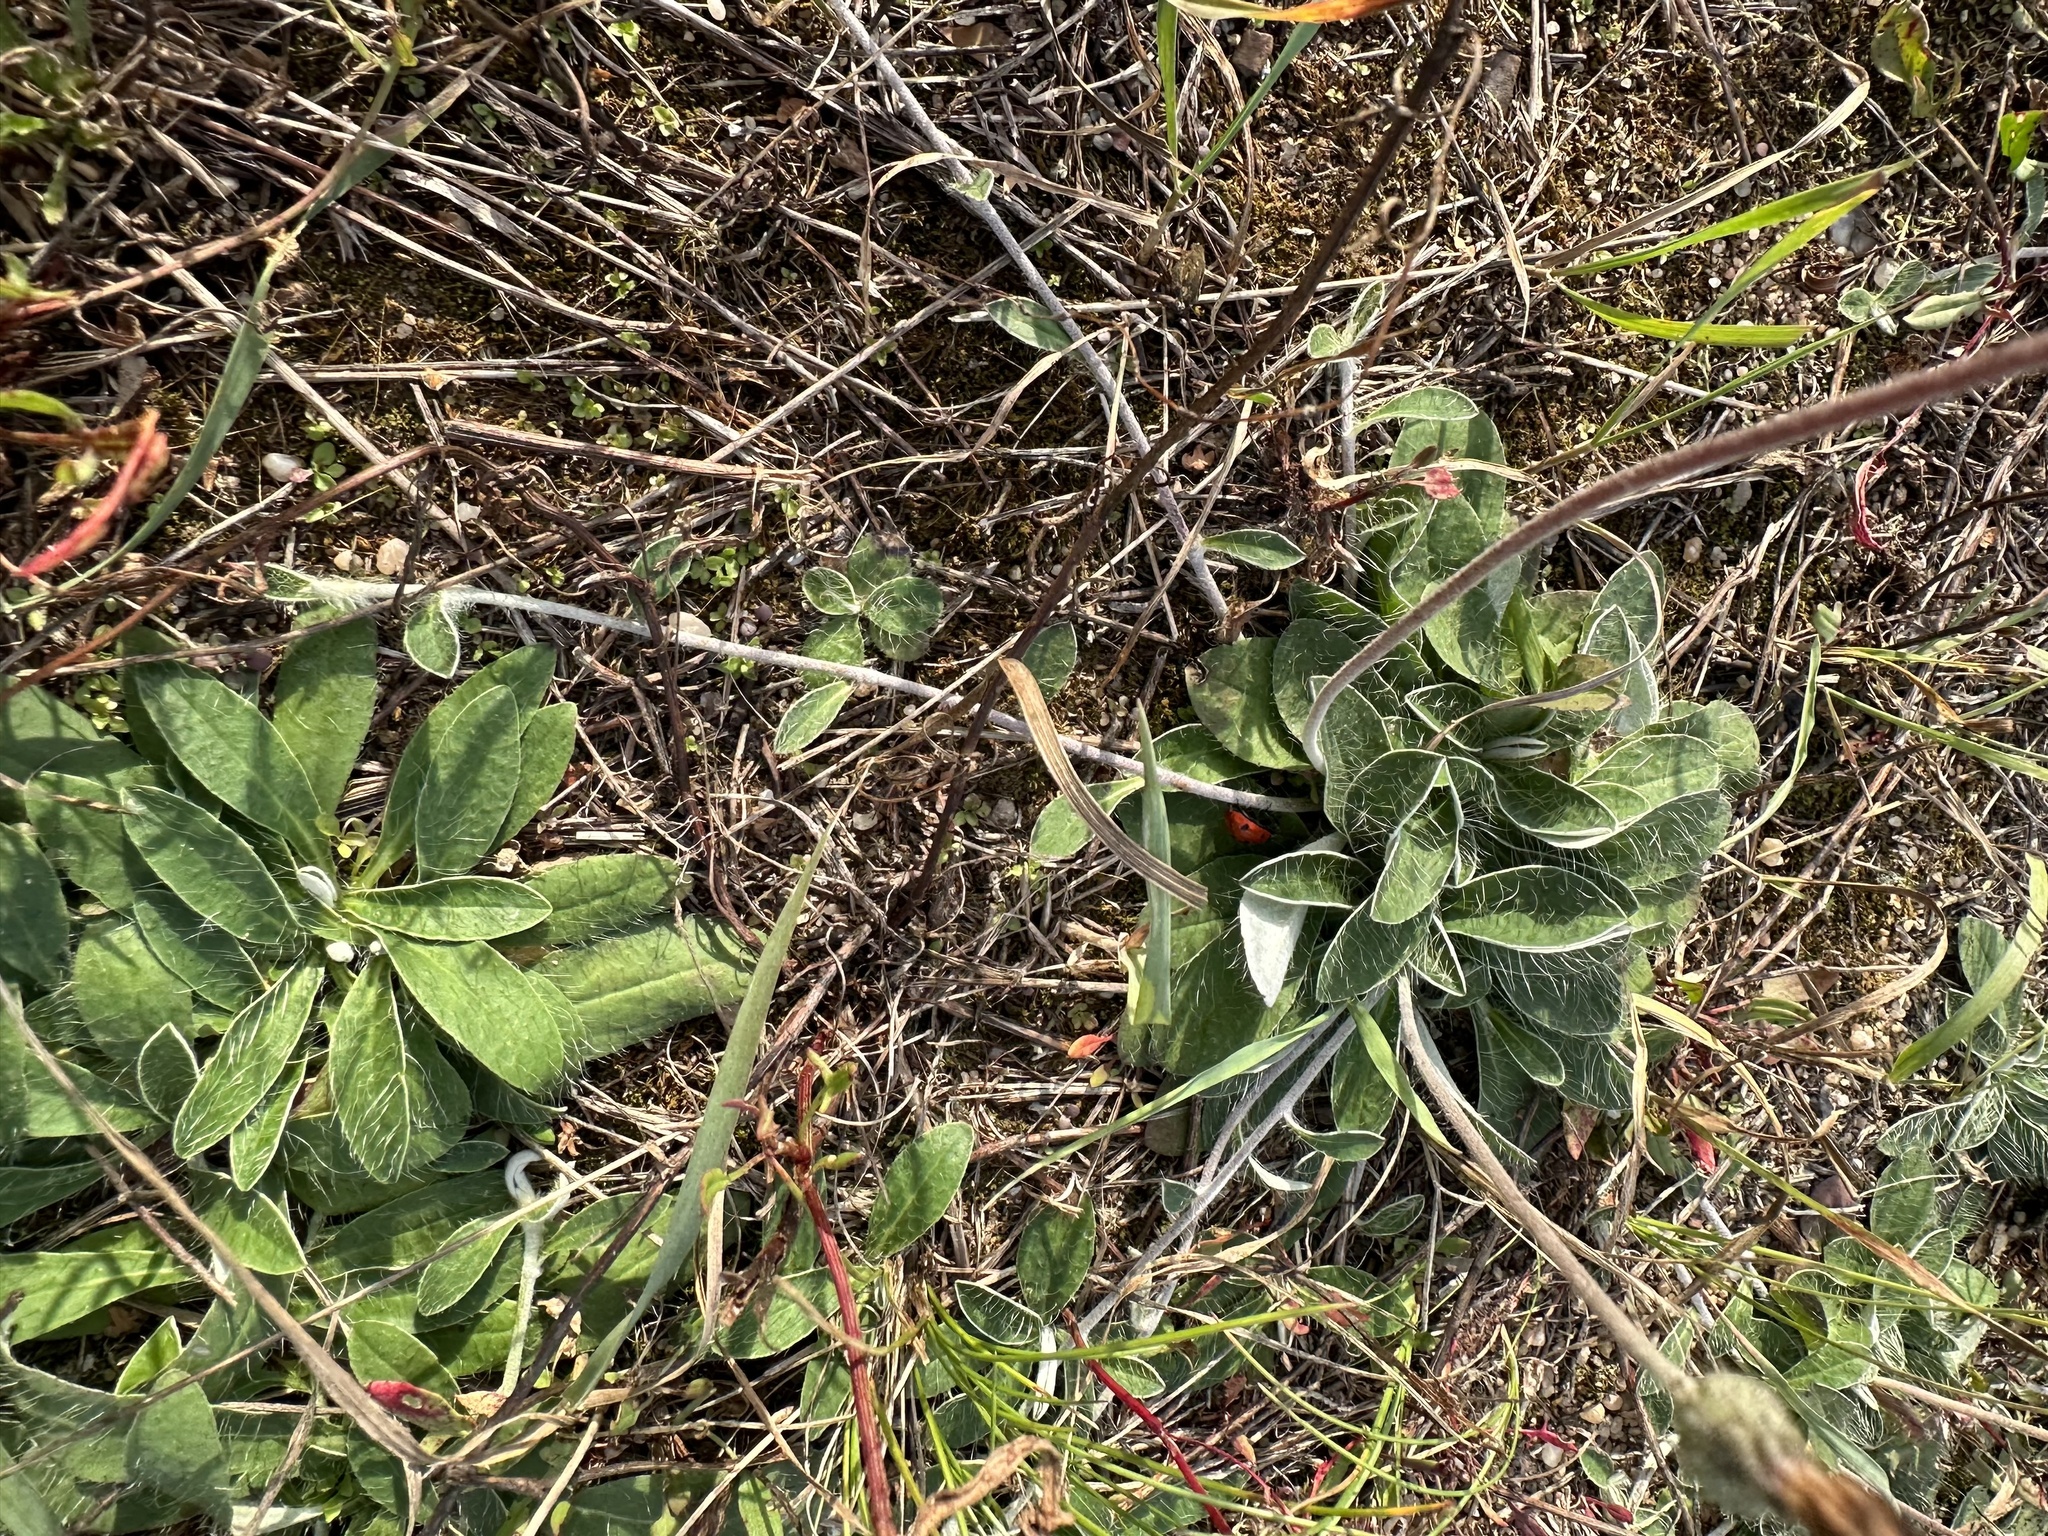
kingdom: Plantae
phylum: Tracheophyta
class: Magnoliopsida
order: Asterales
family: Asteraceae
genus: Pilosella
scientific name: Pilosella officinarum
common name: Mouse-ear hawkweed
